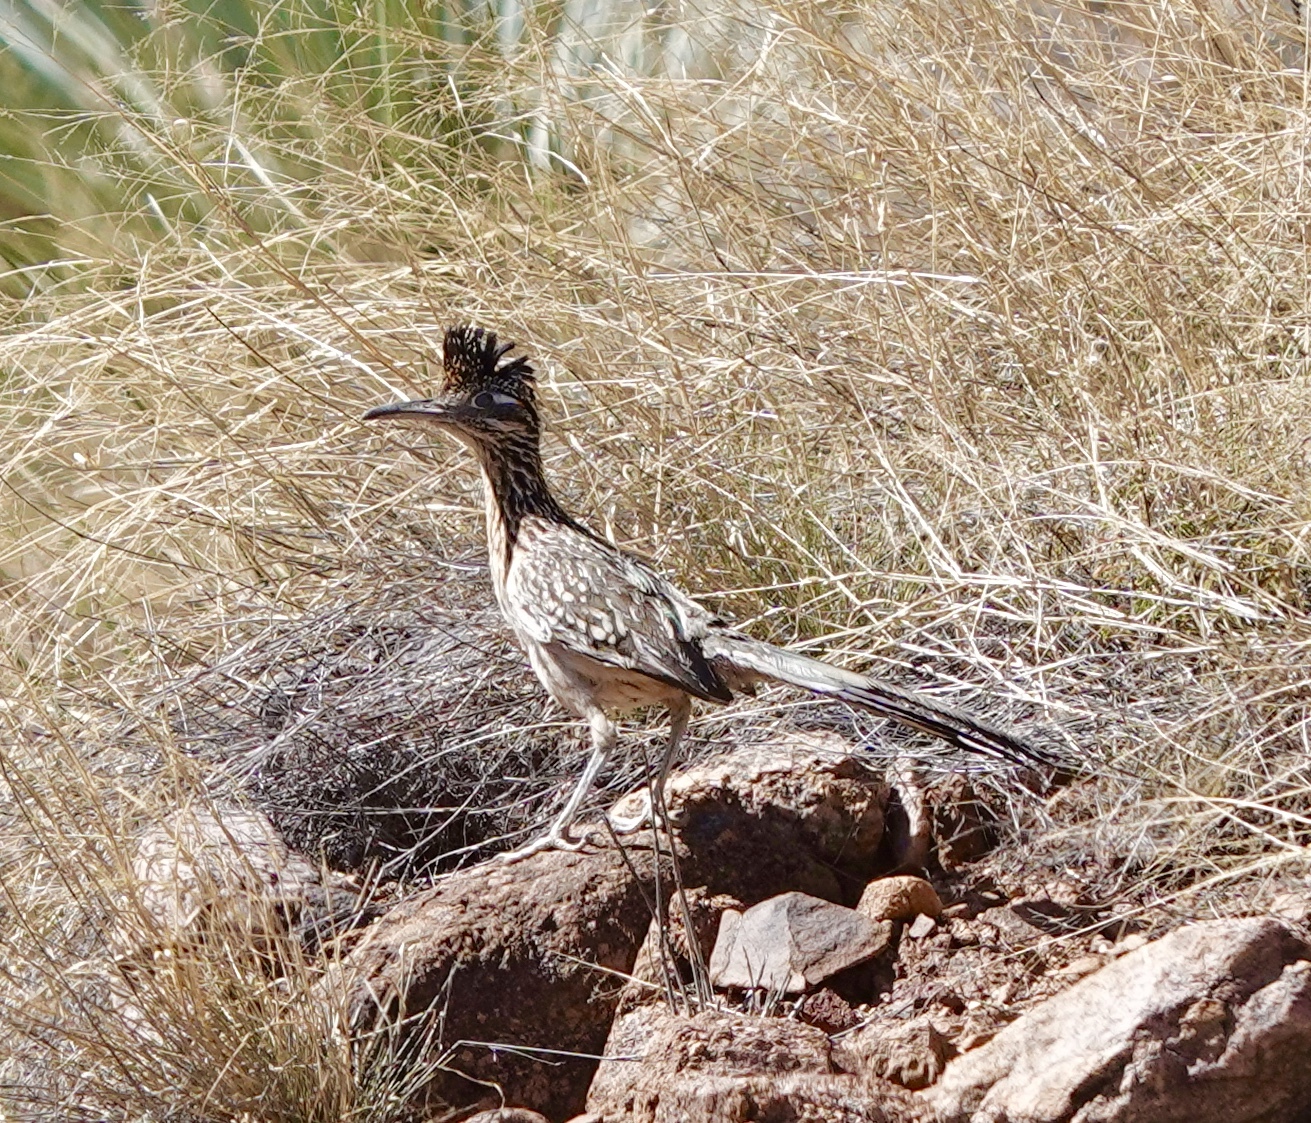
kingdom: Animalia
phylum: Chordata
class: Aves
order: Cuculiformes
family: Cuculidae
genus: Geococcyx
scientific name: Geococcyx californianus
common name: Greater roadrunner
